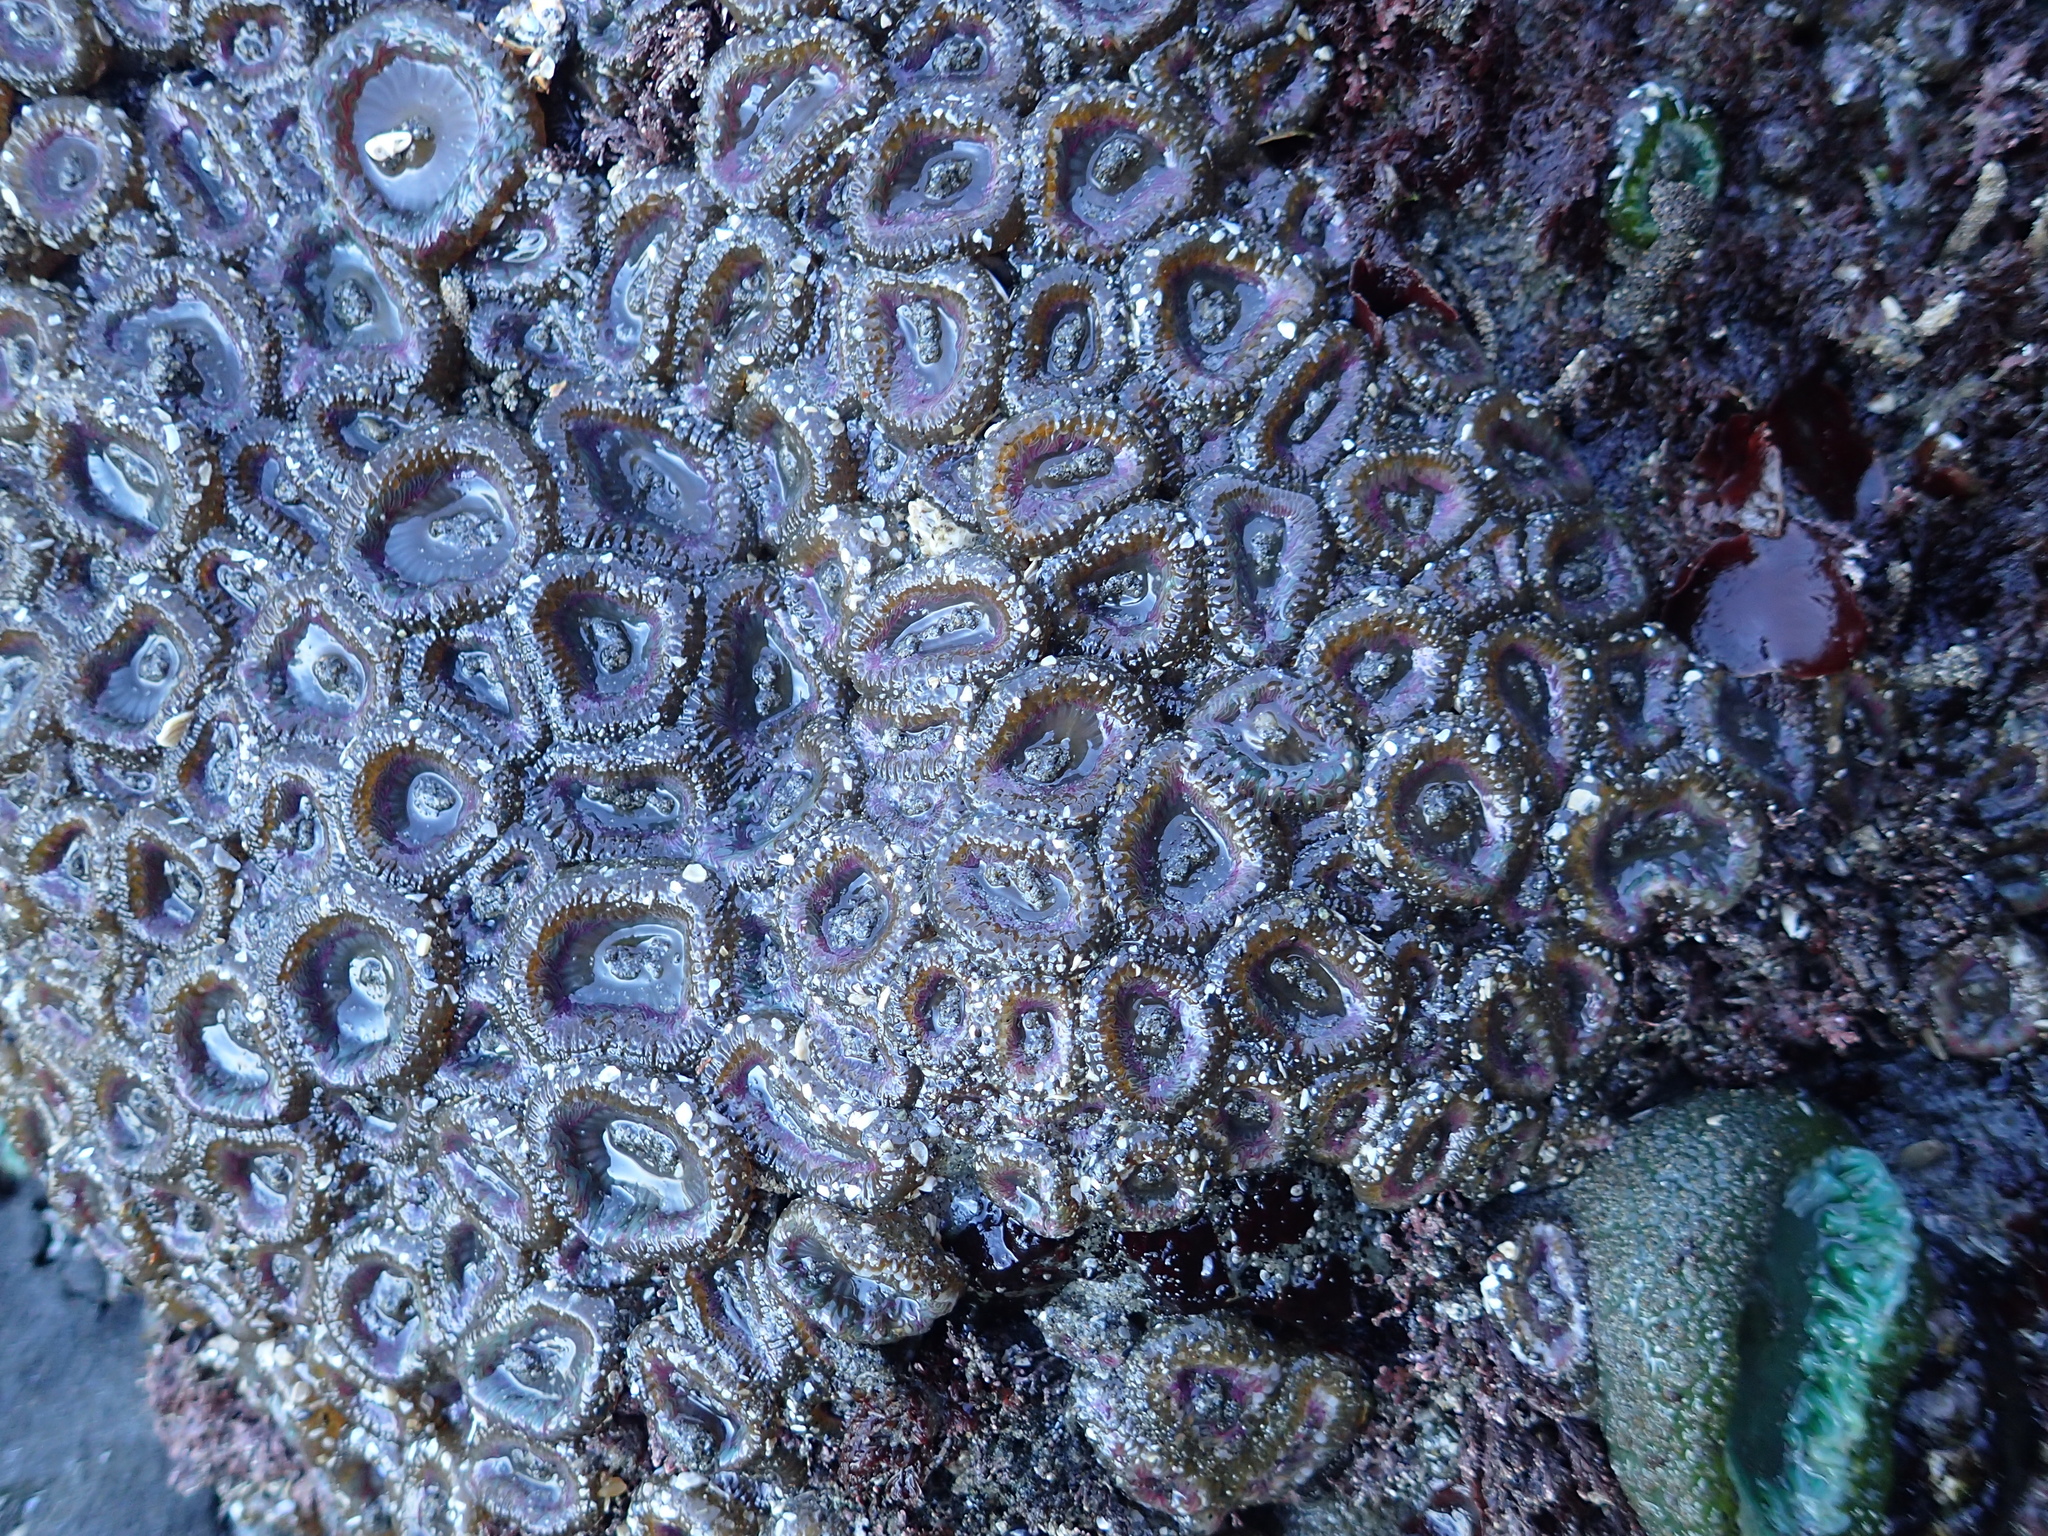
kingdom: Animalia
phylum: Cnidaria
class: Anthozoa
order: Actiniaria
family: Actiniidae
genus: Anthopleura
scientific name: Anthopleura elegantissima
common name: Clonal anemone
